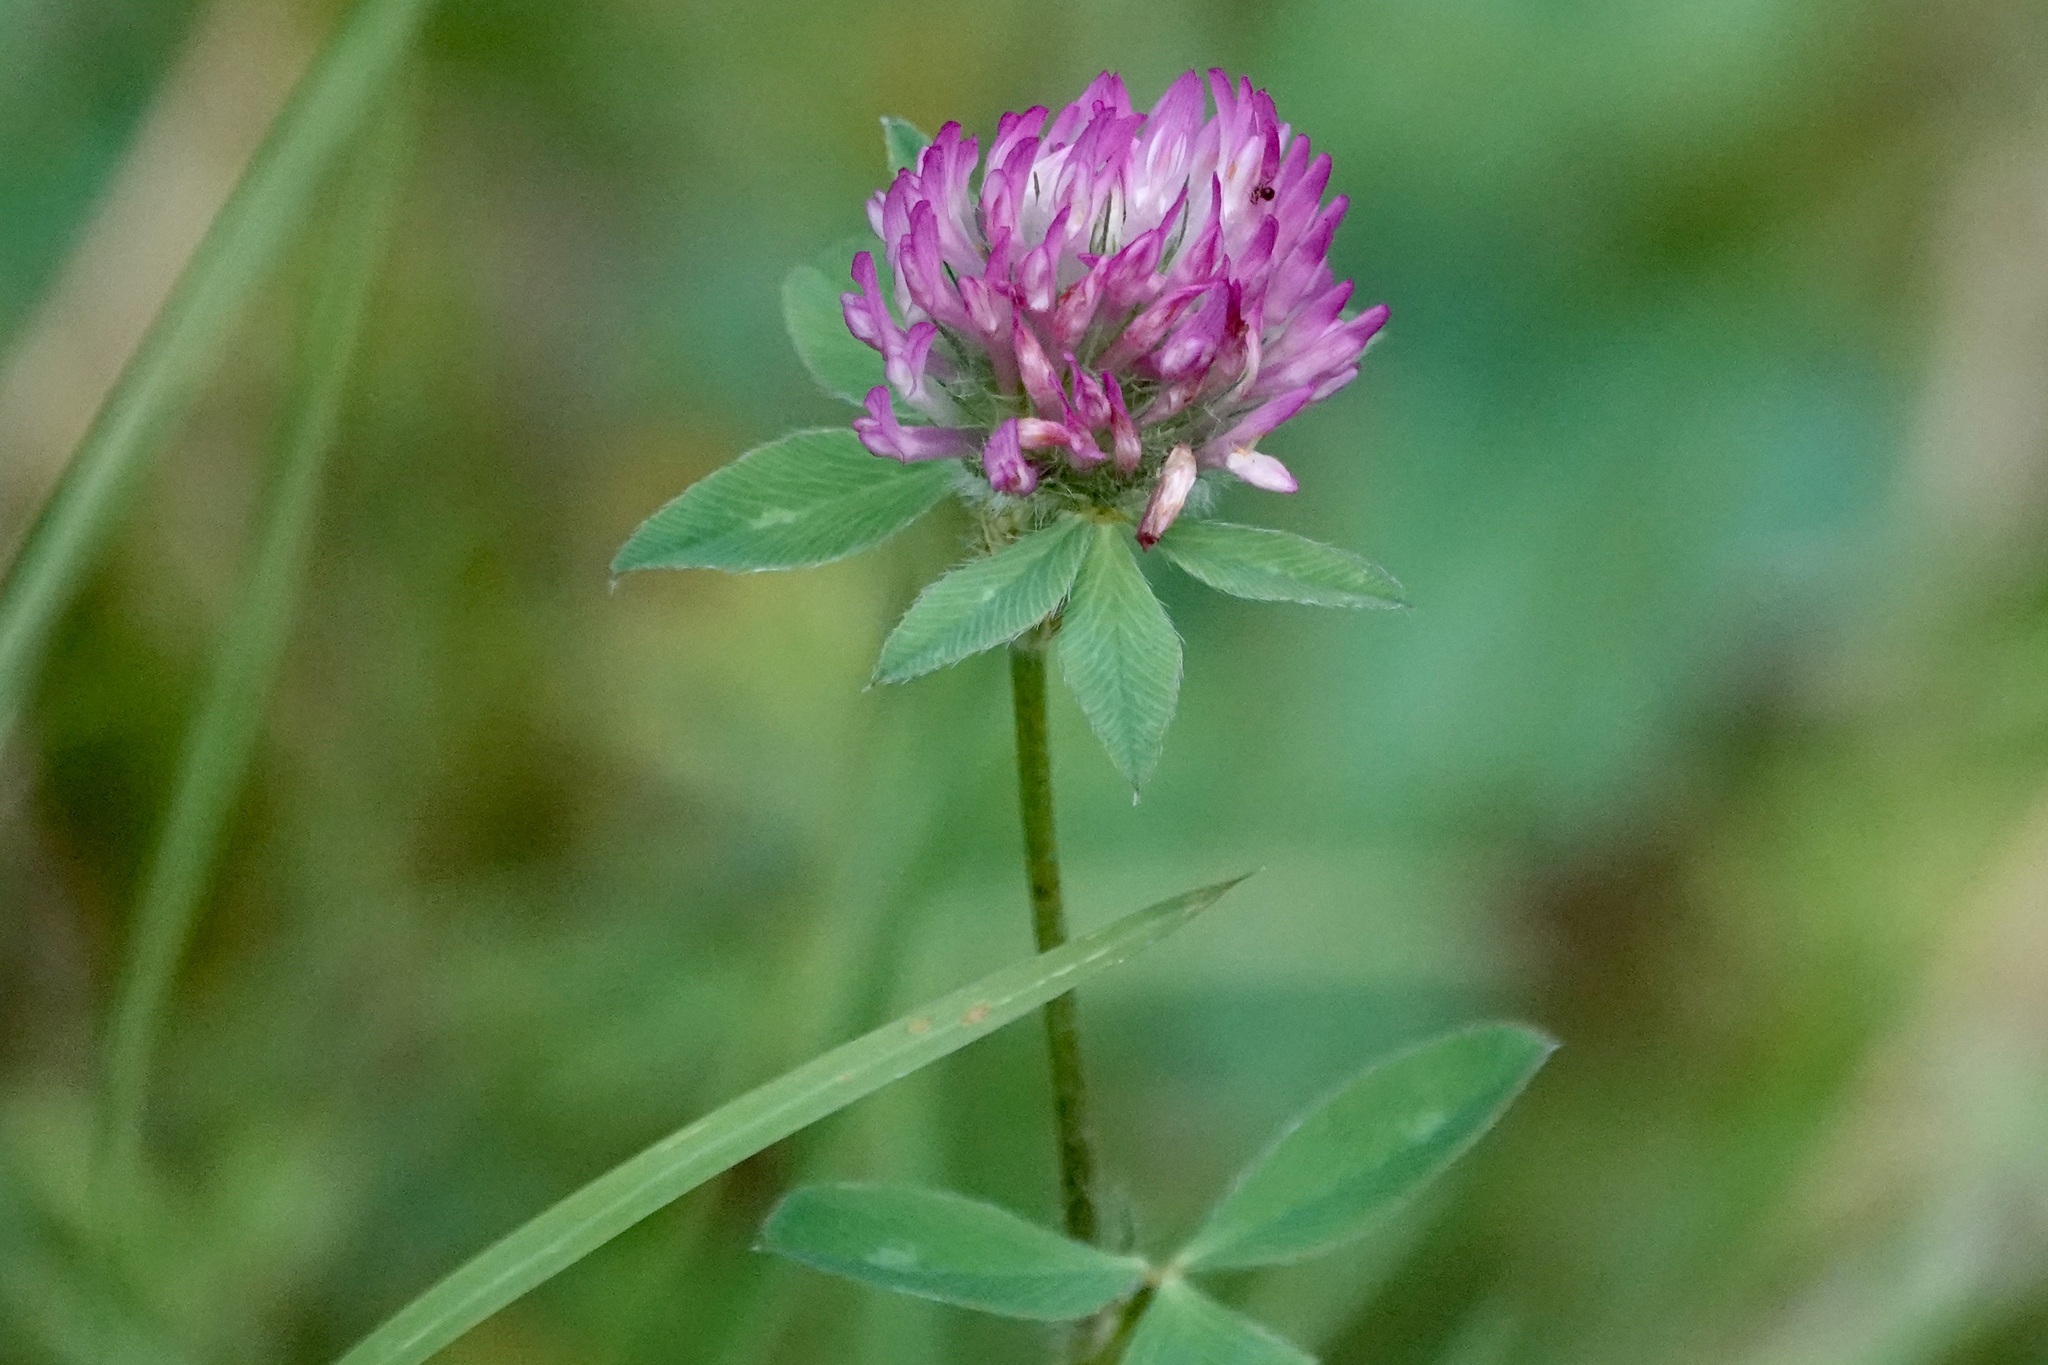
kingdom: Plantae
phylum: Tracheophyta
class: Magnoliopsida
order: Fabales
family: Fabaceae
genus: Trifolium
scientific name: Trifolium pratense
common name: Red clover
